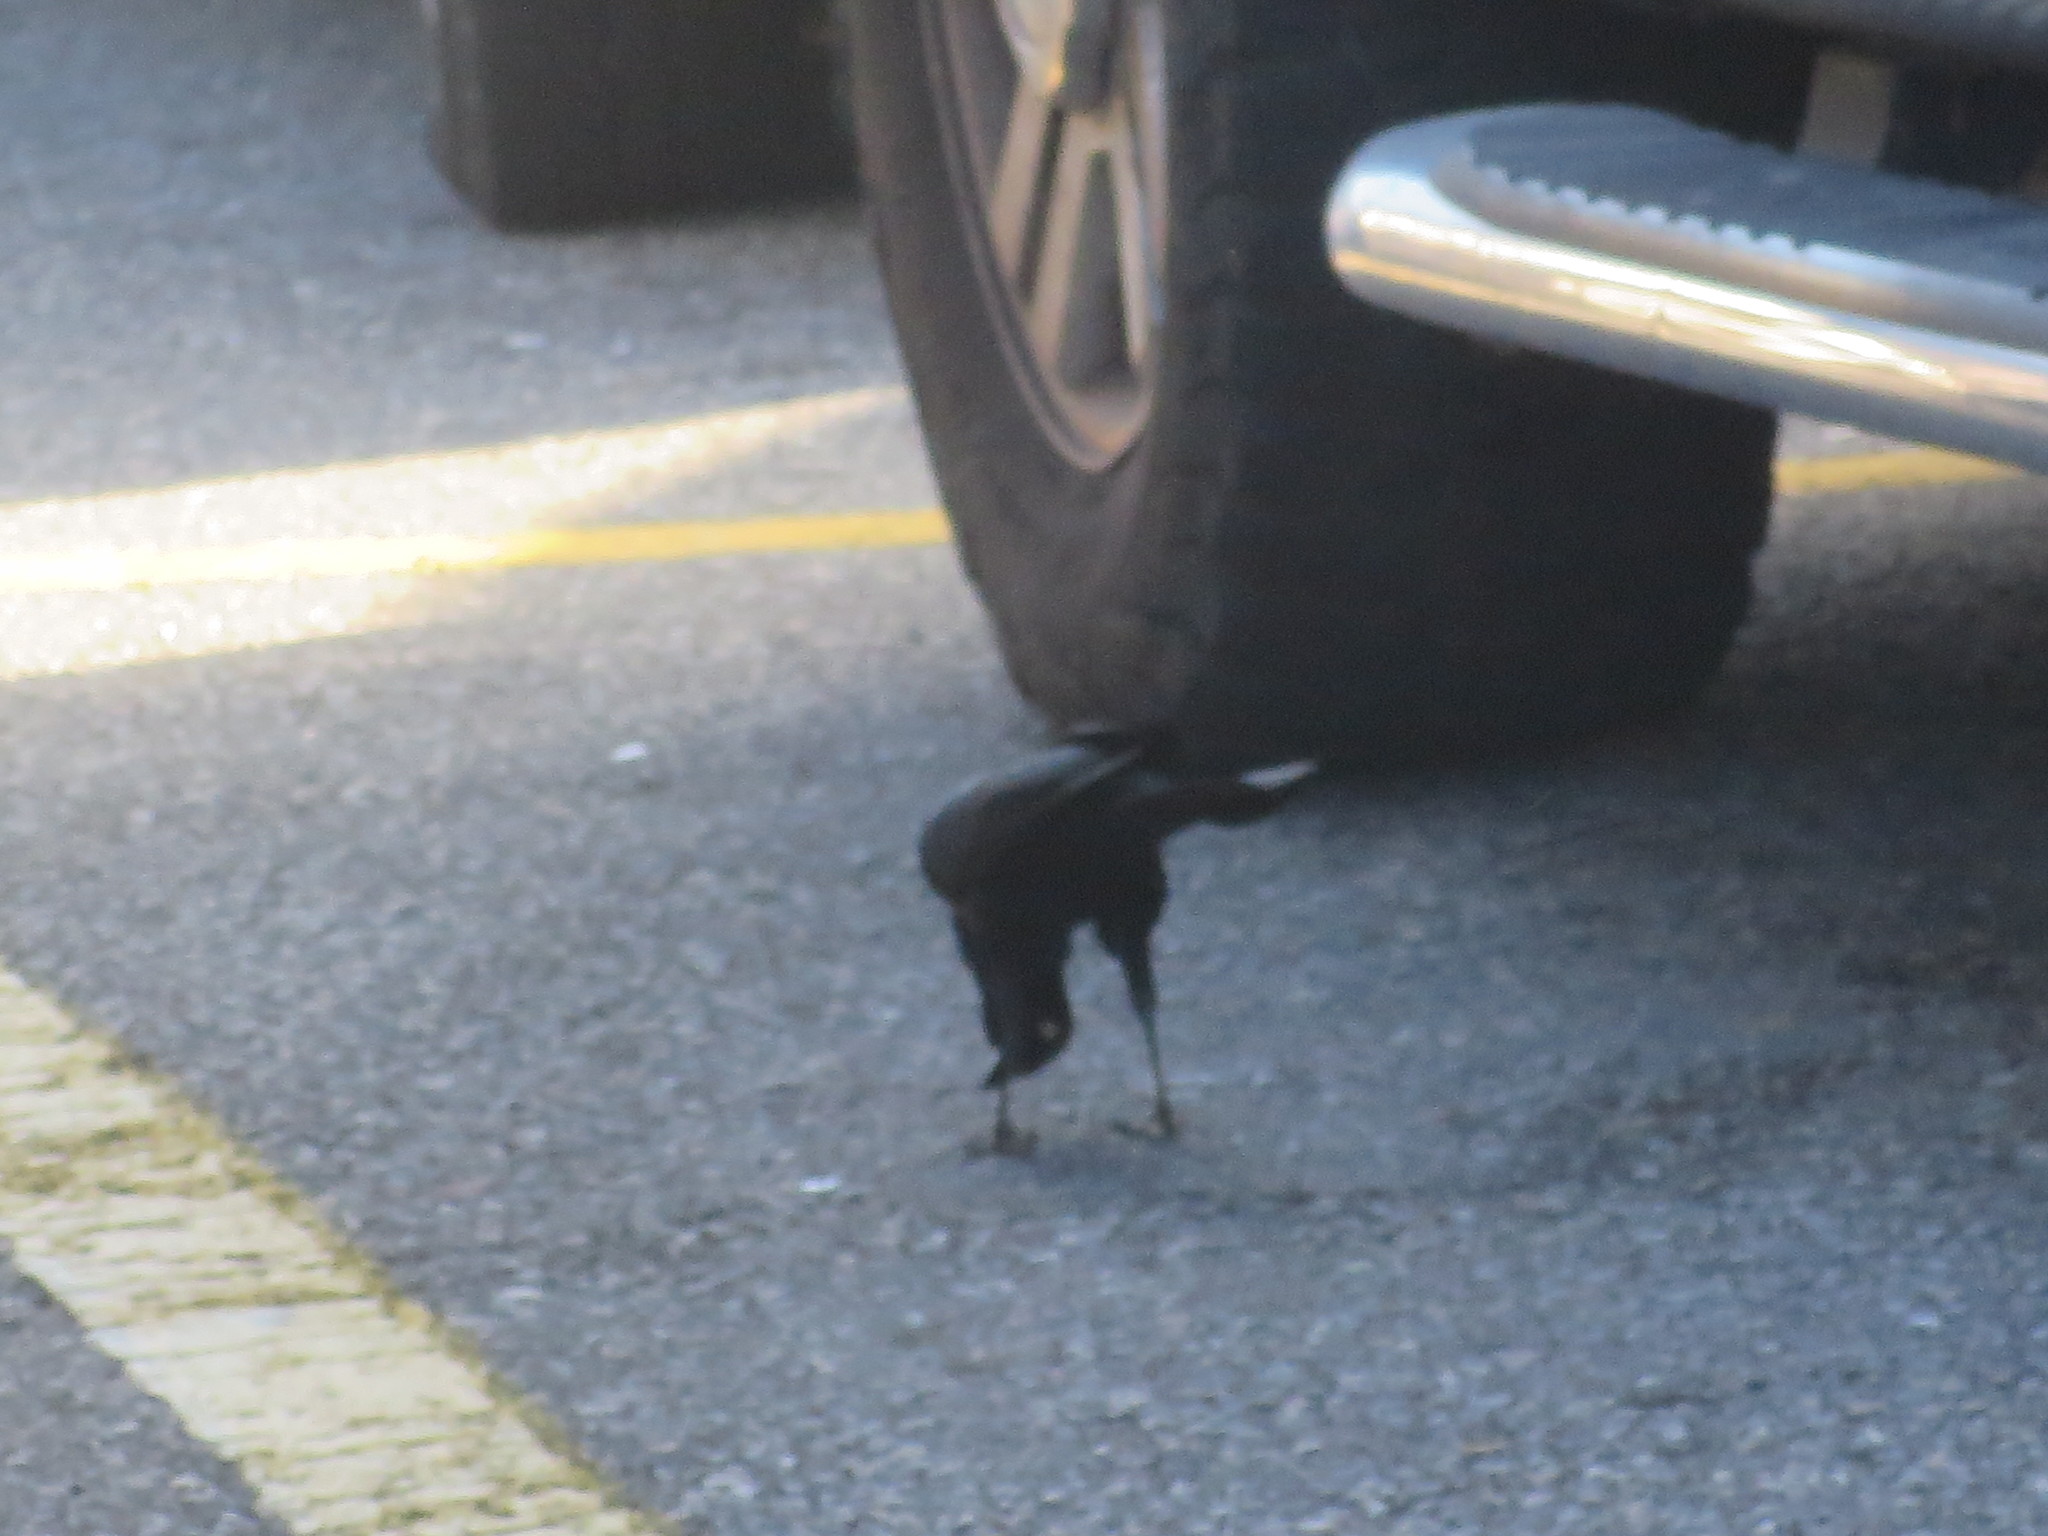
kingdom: Animalia
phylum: Chordata
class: Aves
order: Passeriformes
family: Icteridae
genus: Quiscalus
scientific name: Quiscalus major
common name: Boat-tailed grackle
